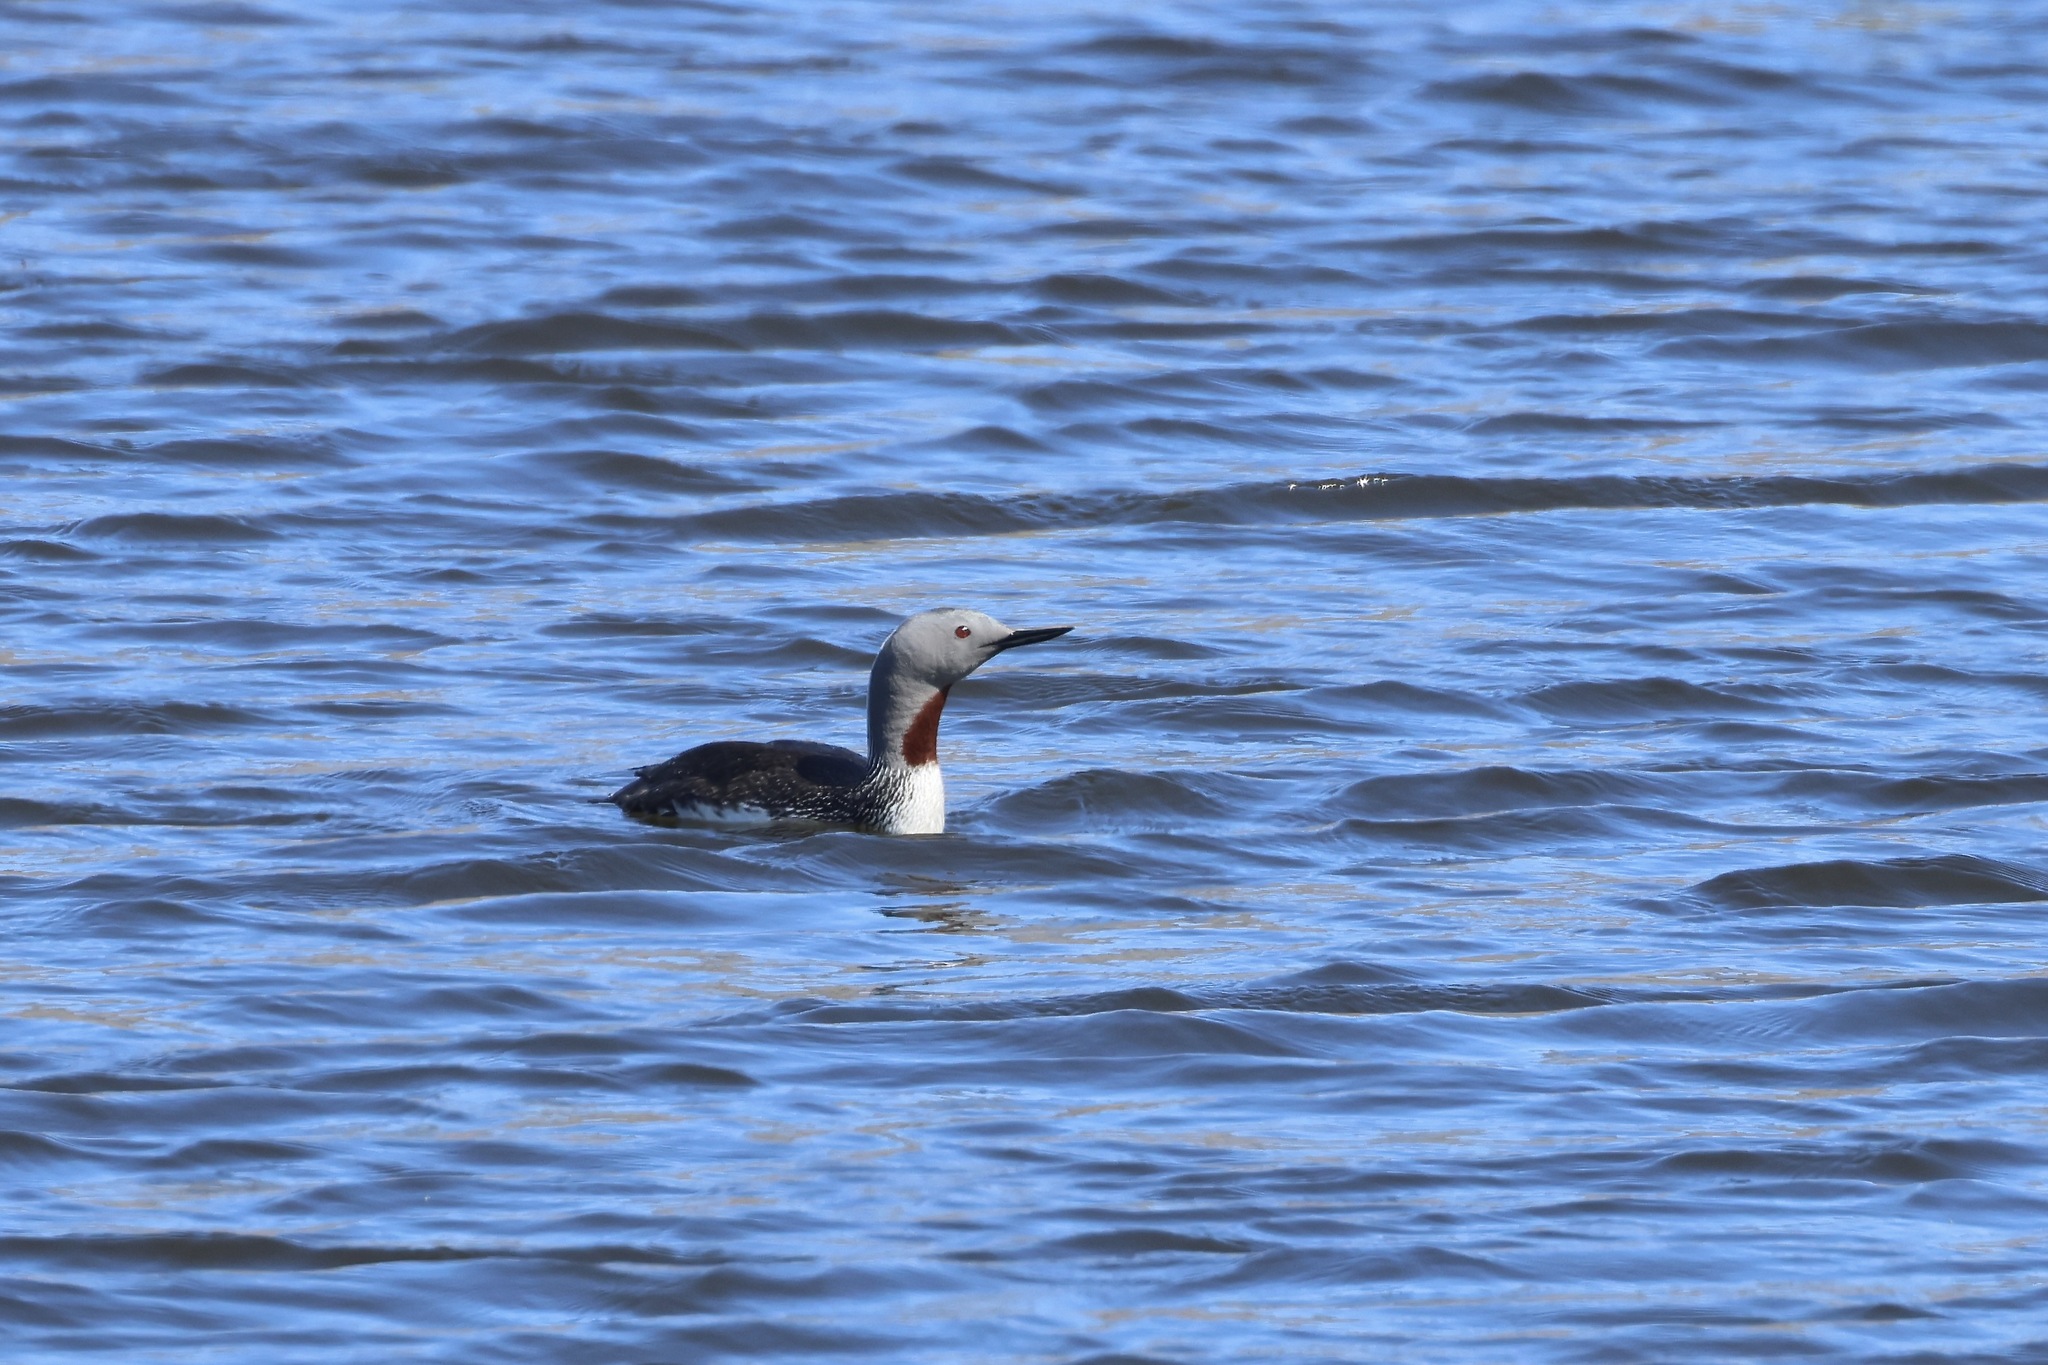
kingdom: Animalia
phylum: Chordata
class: Aves
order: Gaviiformes
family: Gaviidae
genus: Gavia
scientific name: Gavia stellata
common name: Red-throated loon
